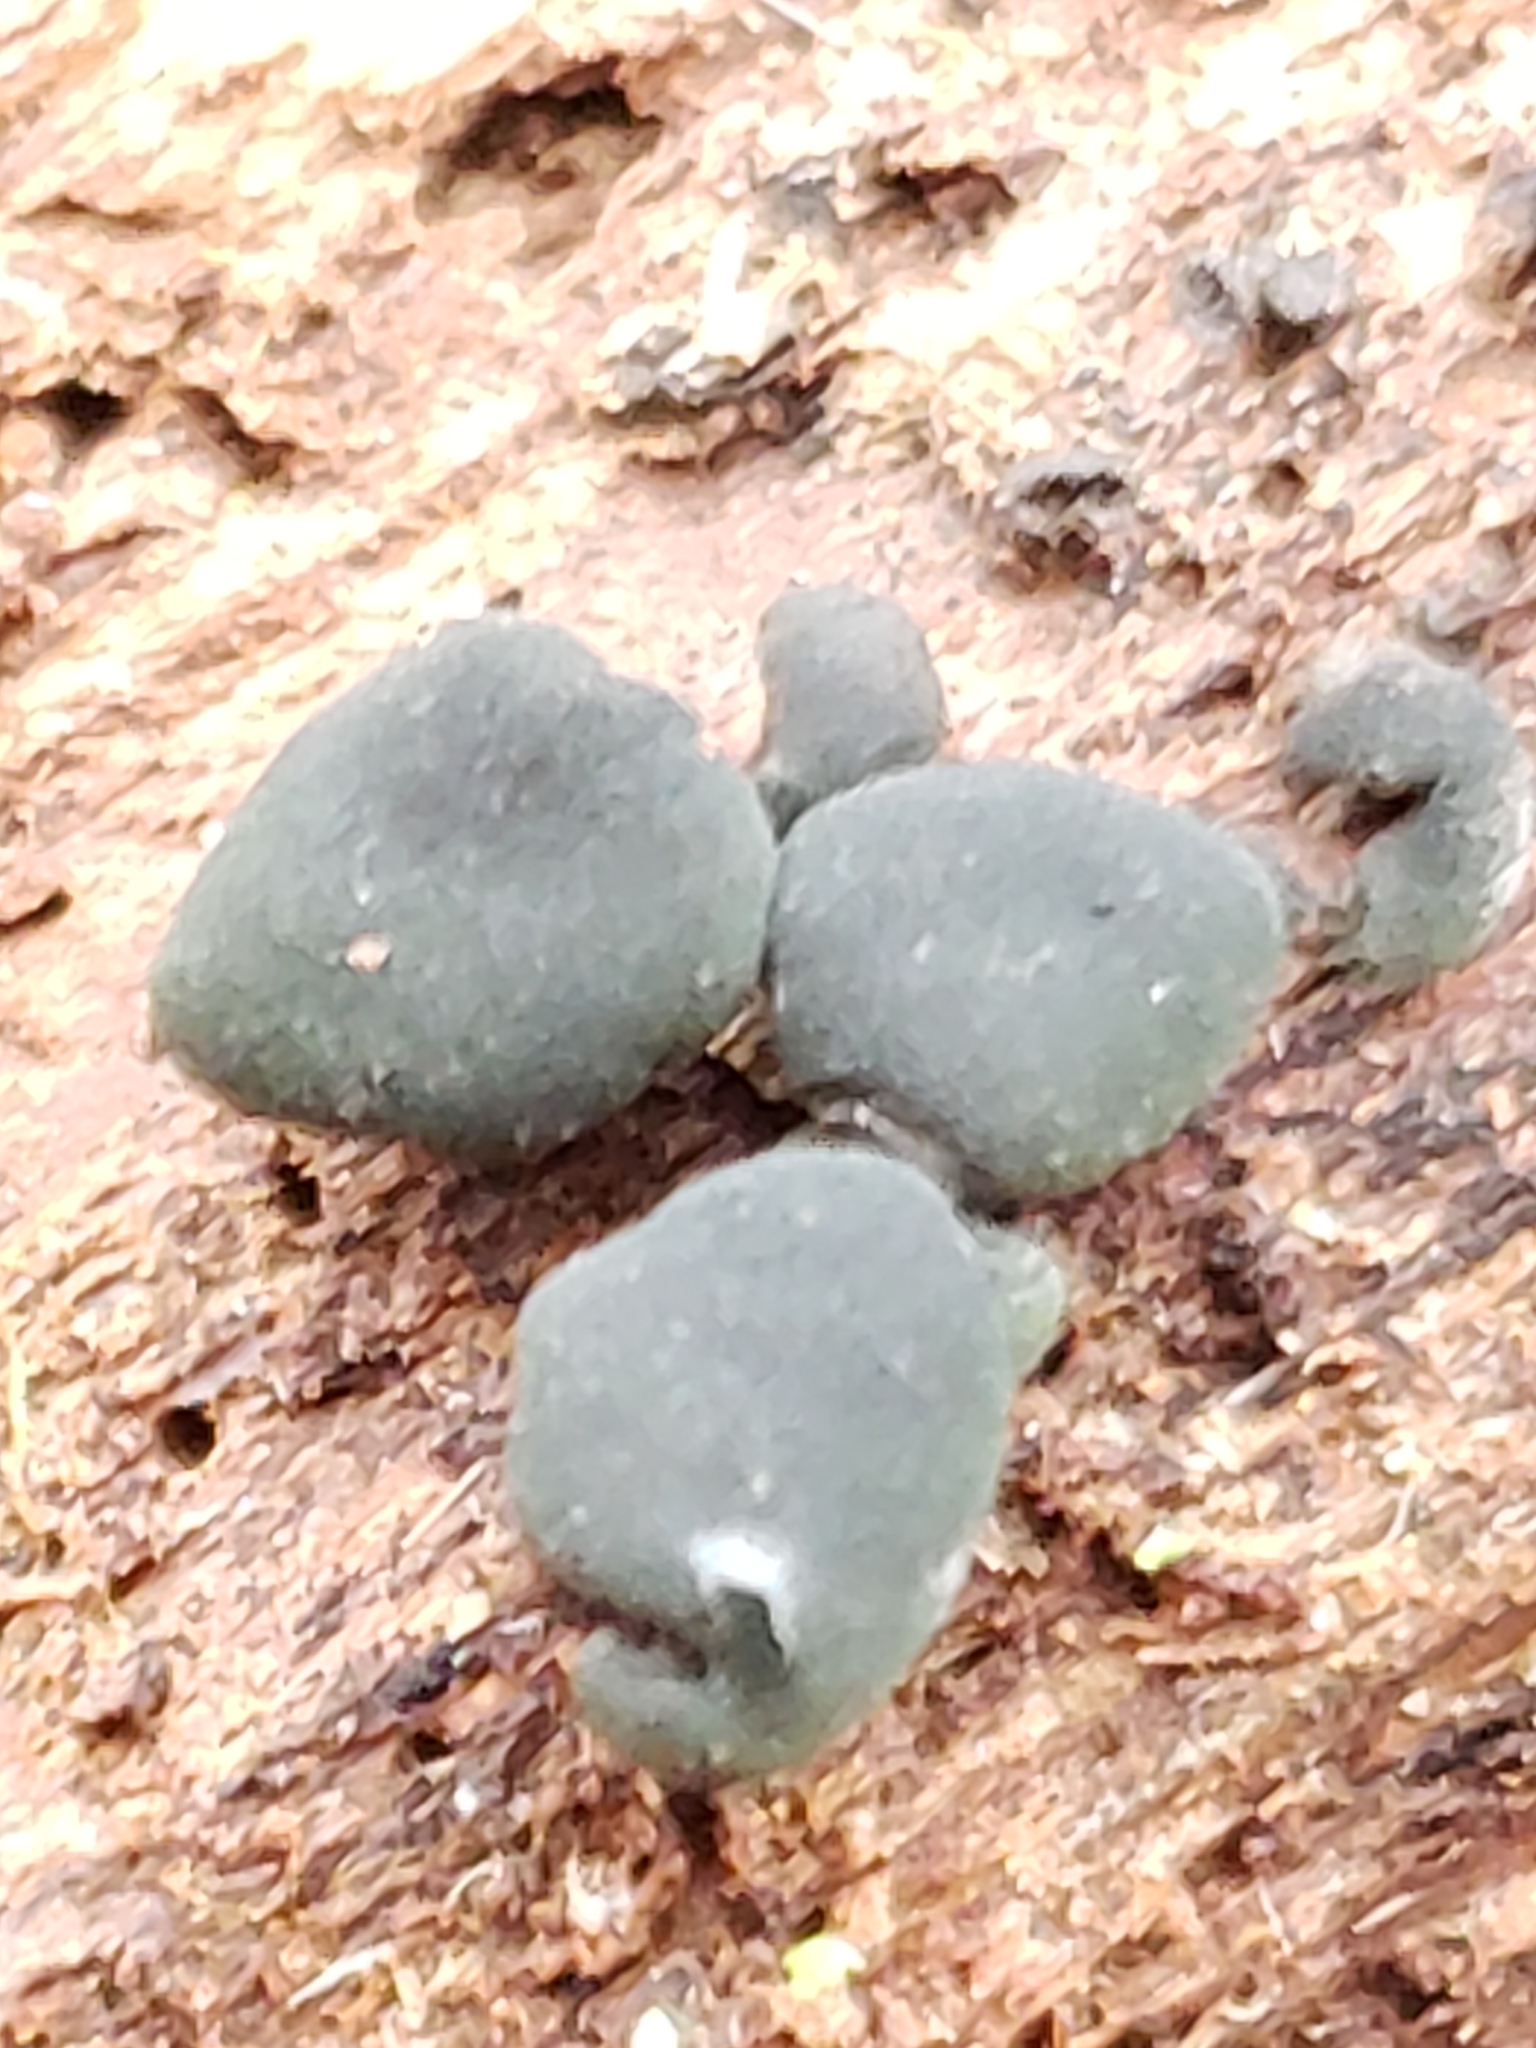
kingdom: Fungi
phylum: Ascomycota
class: Leotiomycetes
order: Helotiales
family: Cenangiaceae
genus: Chlorencoelia
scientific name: Chlorencoelia torta
